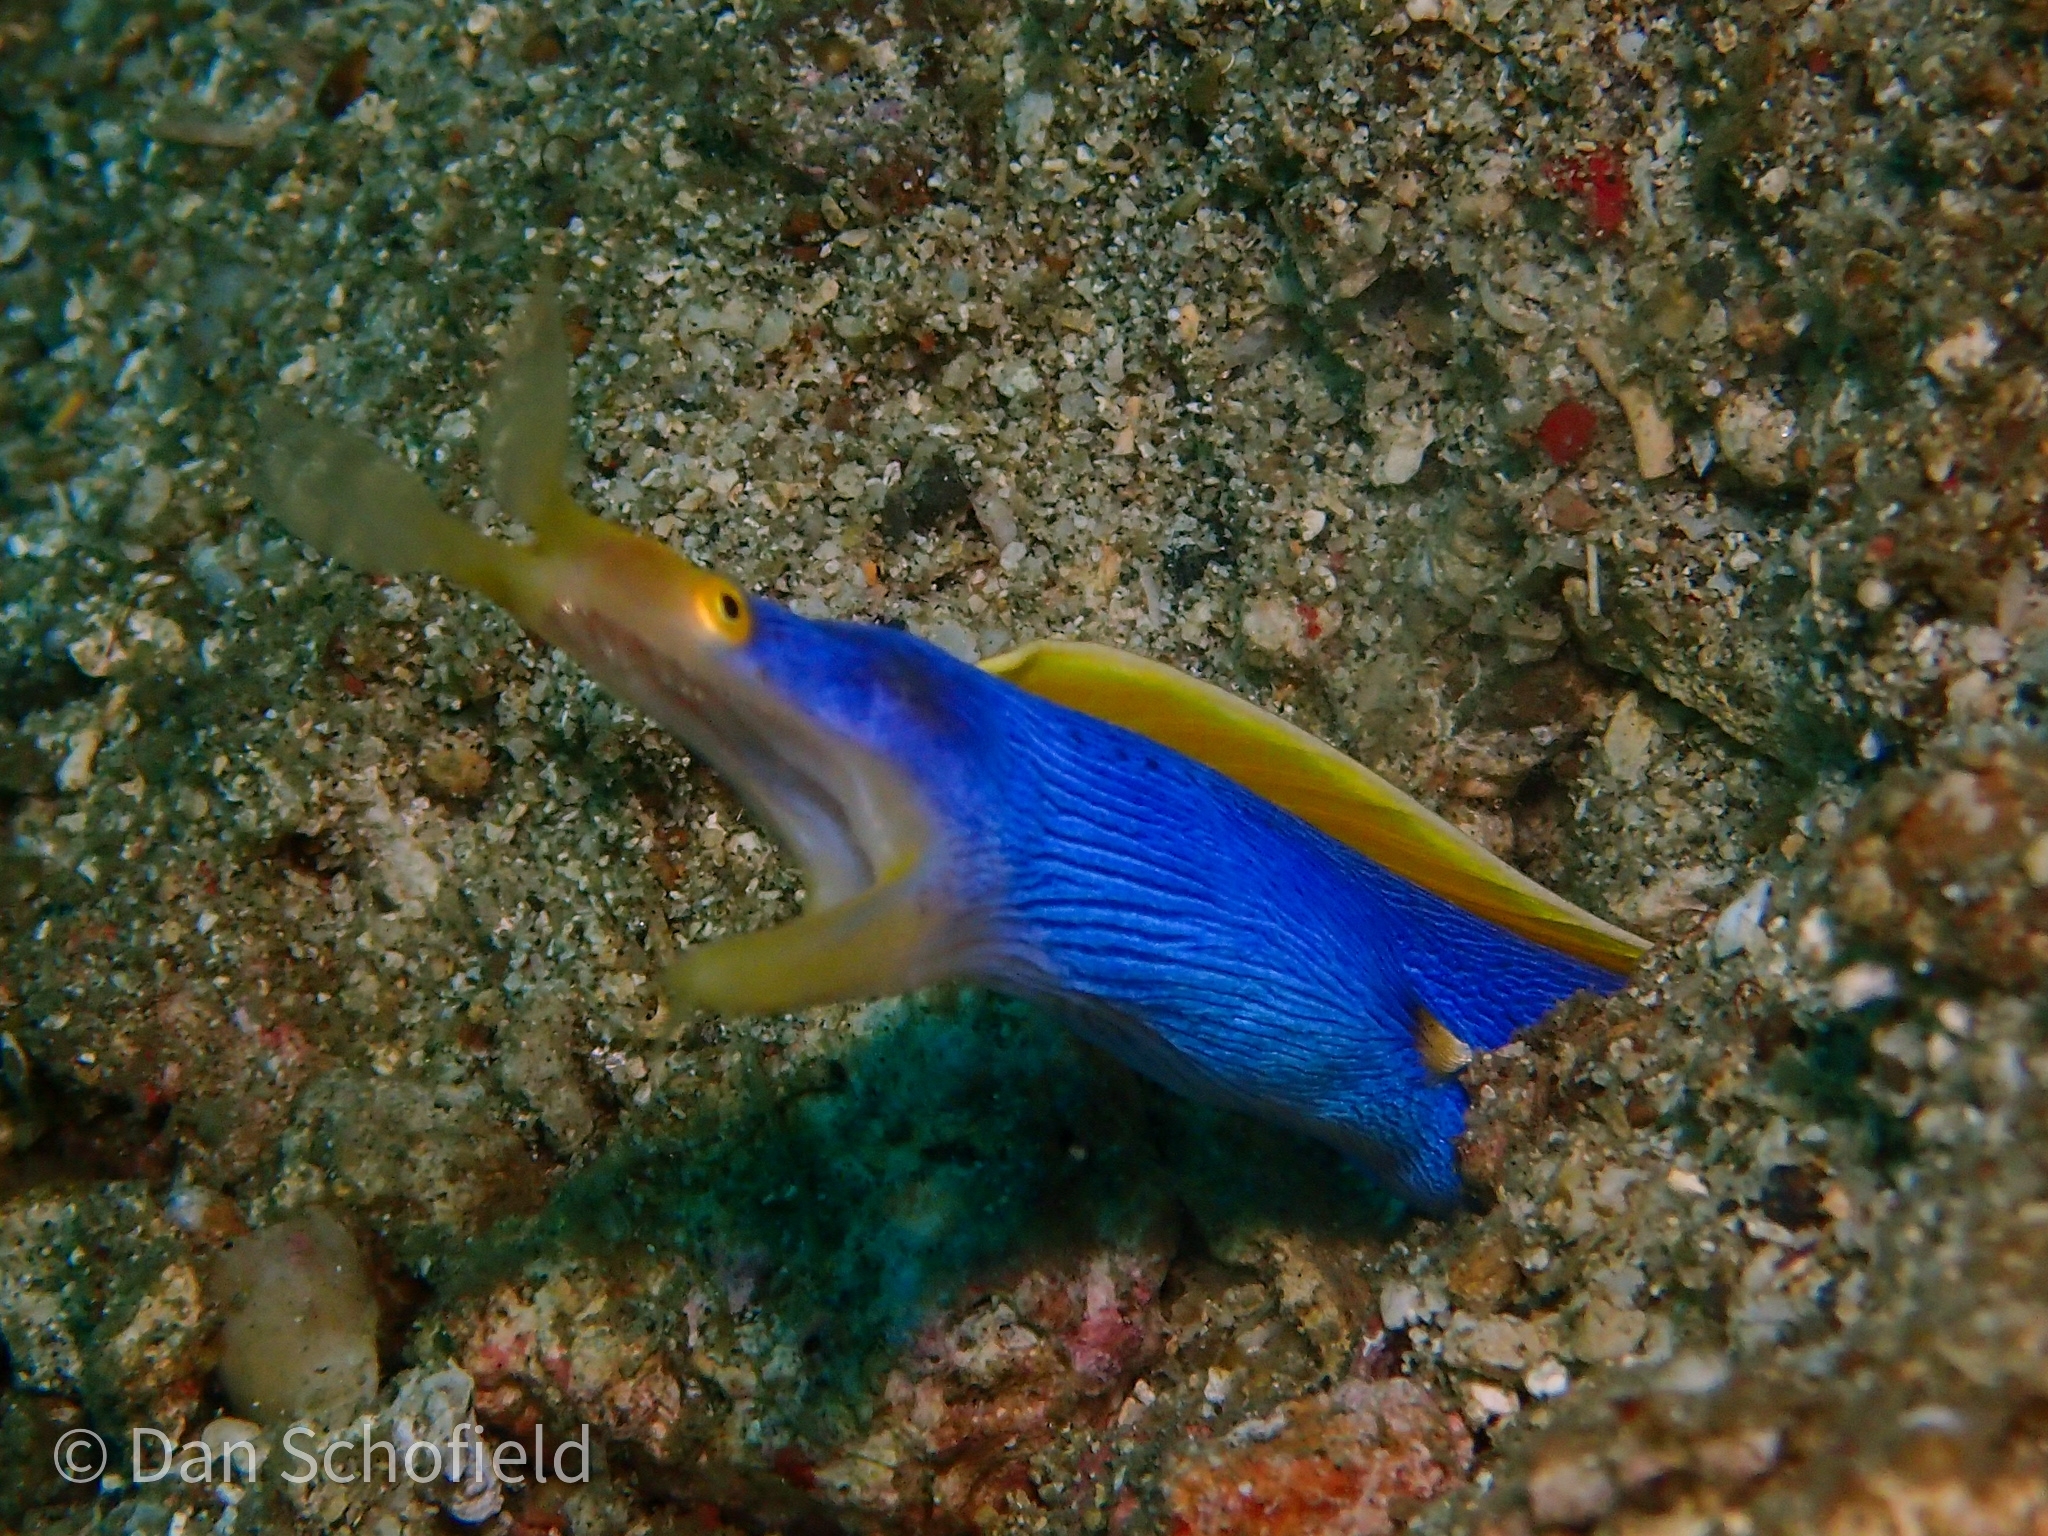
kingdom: Animalia
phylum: Chordata
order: Anguilliformes
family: Muraenidae
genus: Rhinomuraena
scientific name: Rhinomuraena quaesita
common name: Ribbon eel
